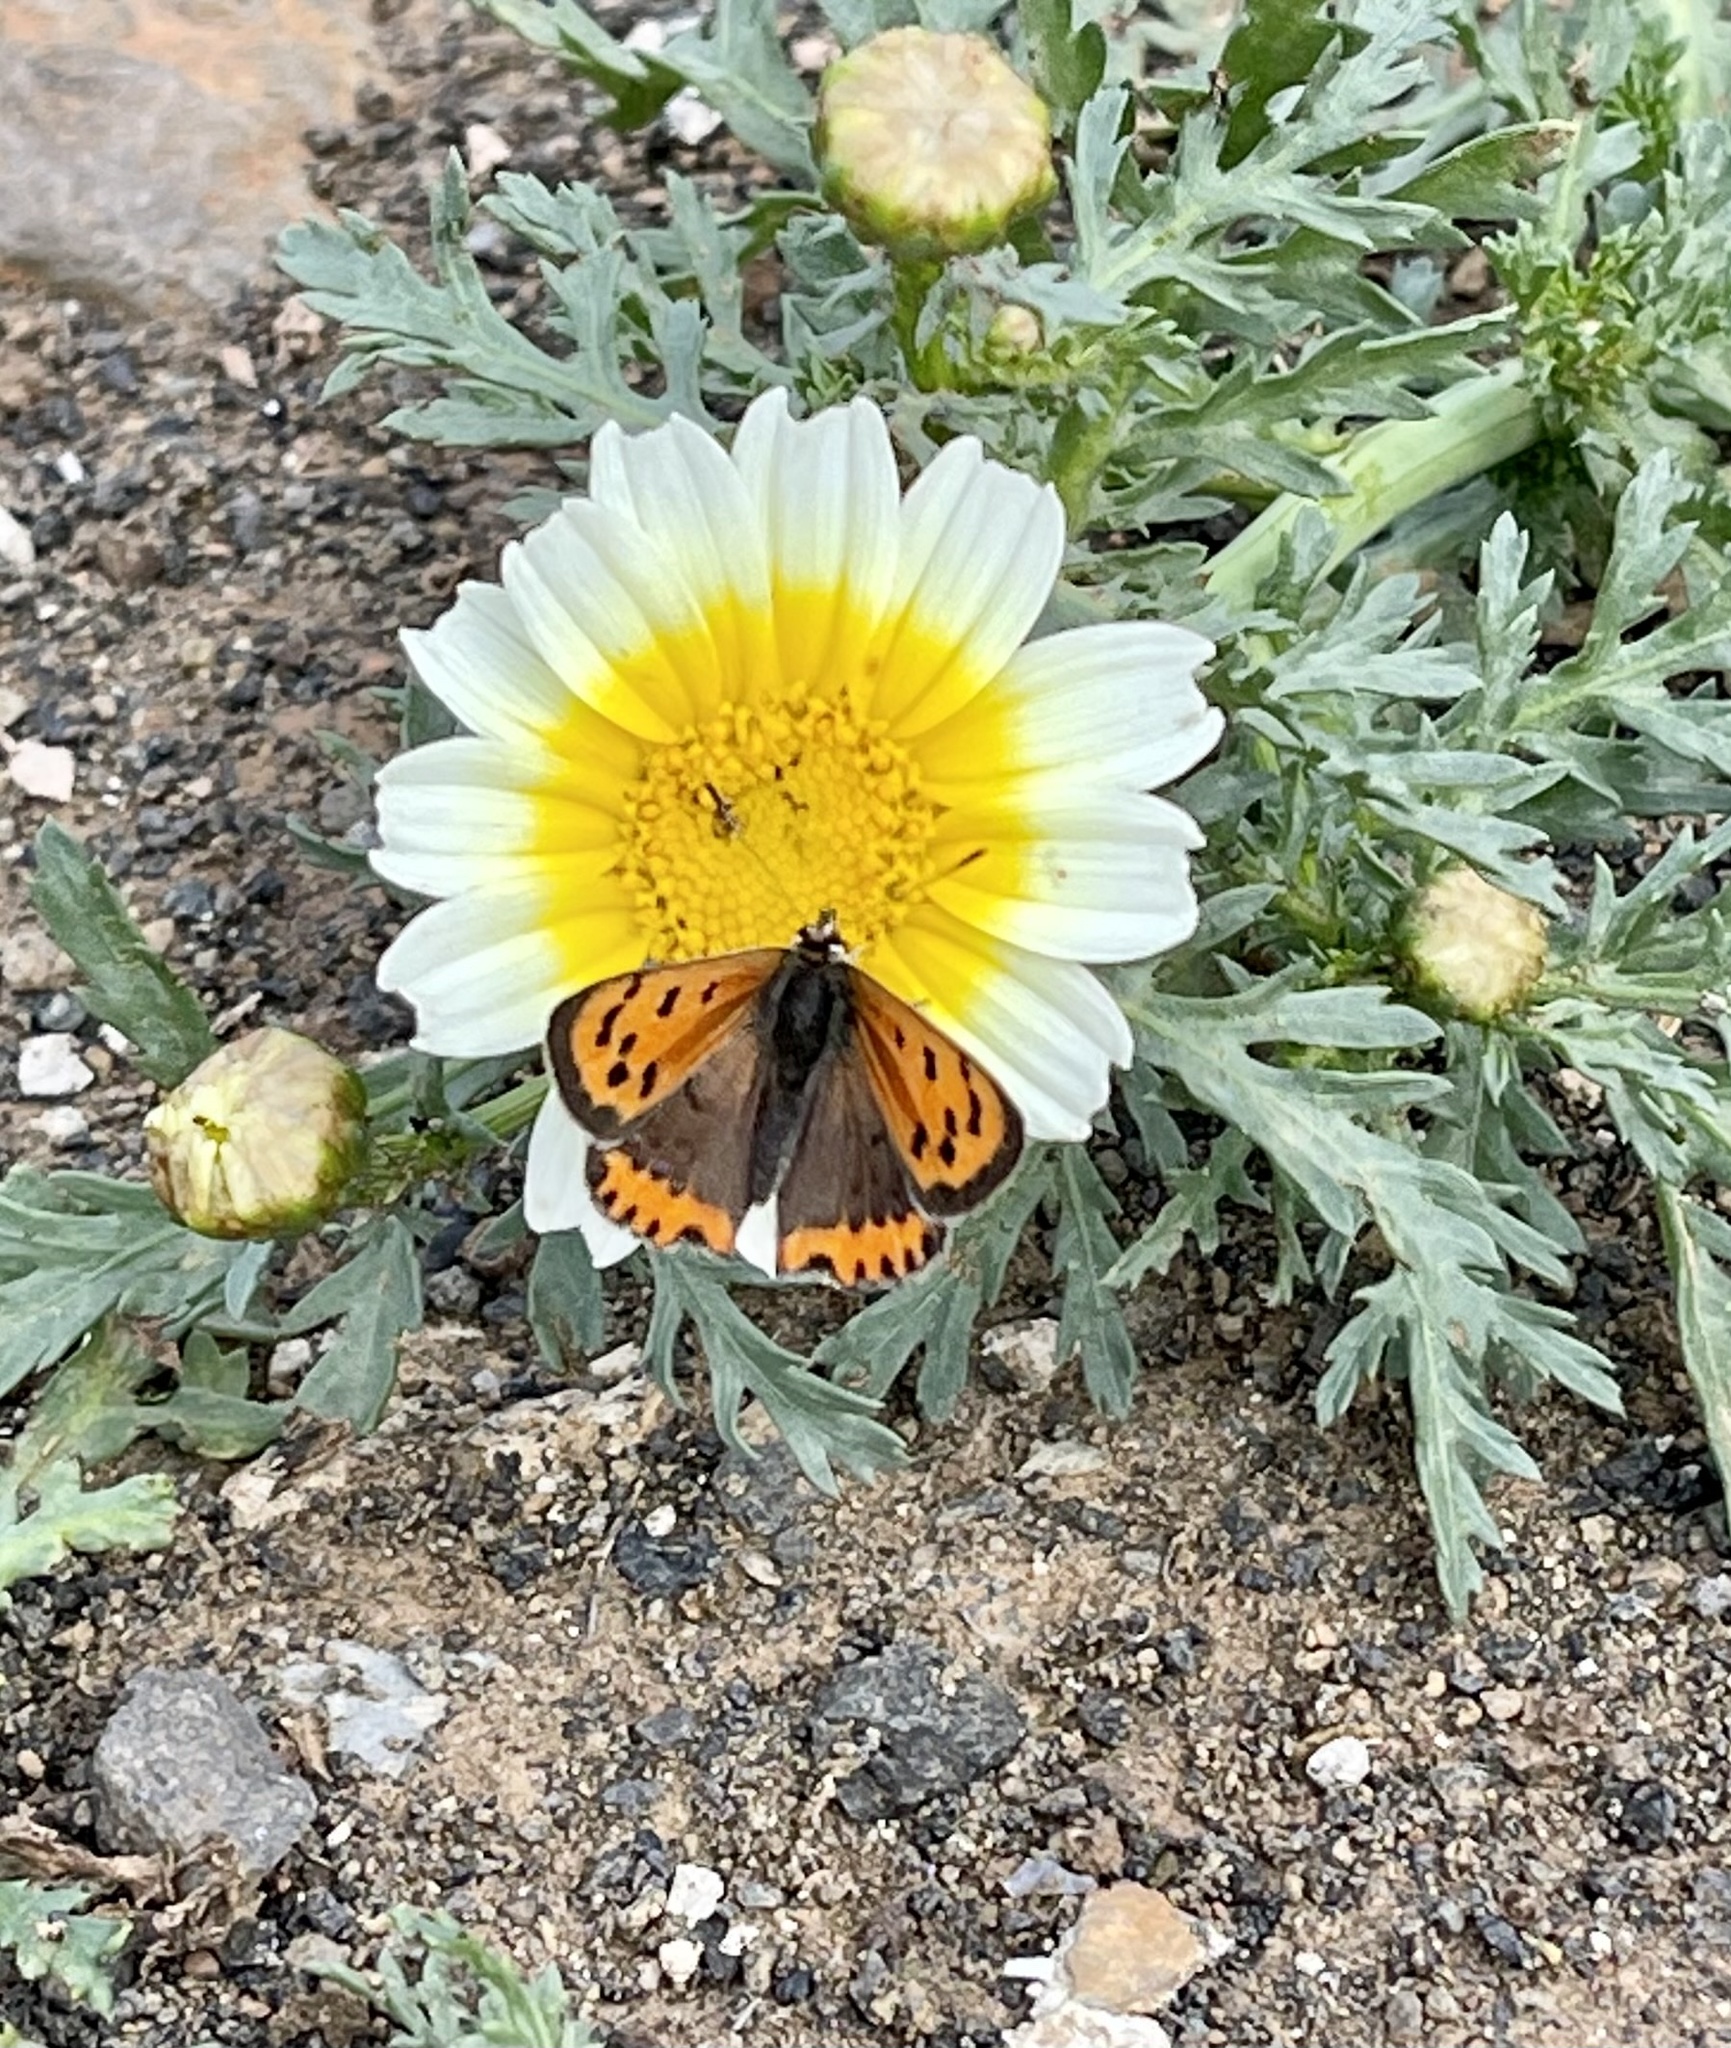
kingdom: Animalia
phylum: Arthropoda
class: Insecta
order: Lepidoptera
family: Lycaenidae
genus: Lycaena
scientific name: Lycaena phlaeas
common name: Small copper
